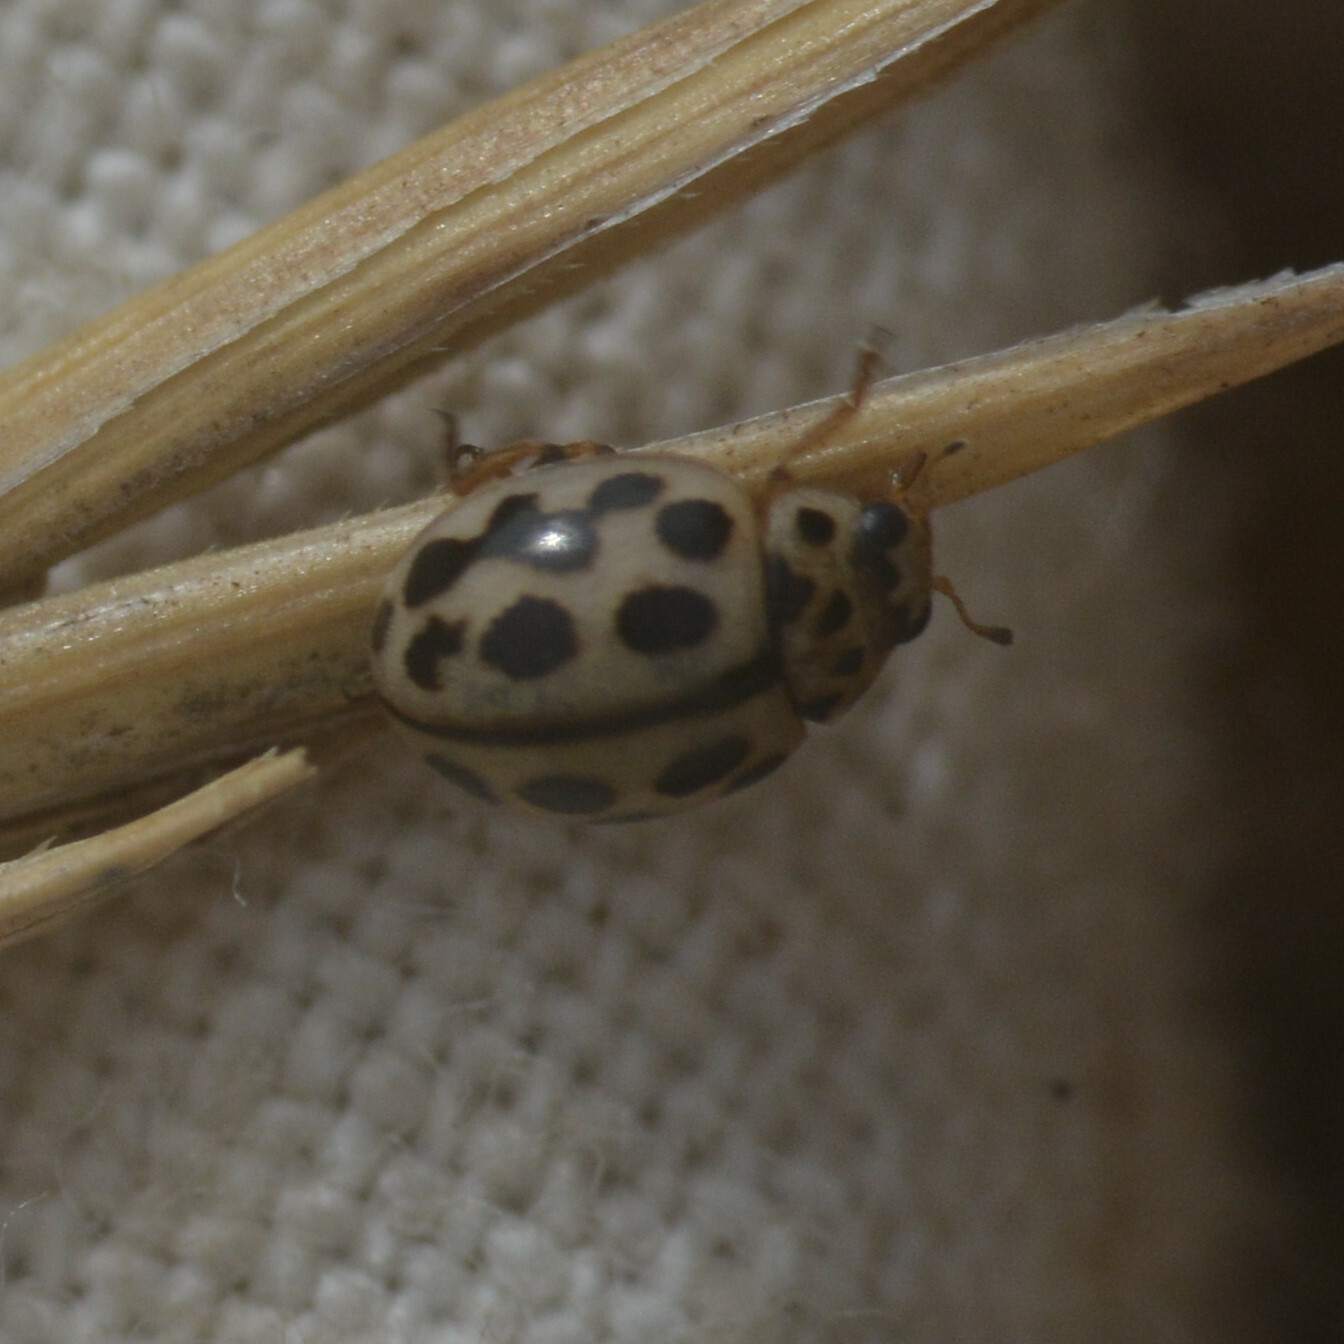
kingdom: Animalia
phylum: Arthropoda
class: Insecta
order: Coleoptera
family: Coccinellidae
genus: Tytthaspis
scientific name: Tytthaspis sedecimpunctata
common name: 16-spot ladybird
